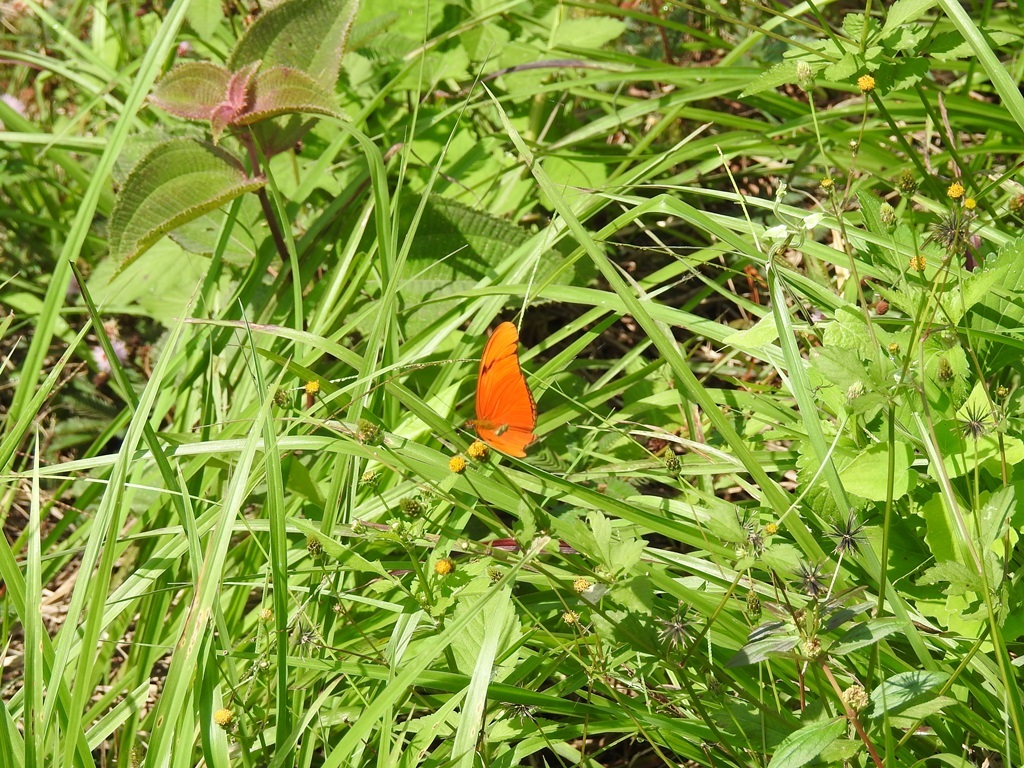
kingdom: Animalia
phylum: Arthropoda
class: Insecta
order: Lepidoptera
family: Nymphalidae
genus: Dryas
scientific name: Dryas iulia
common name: Flambeau
